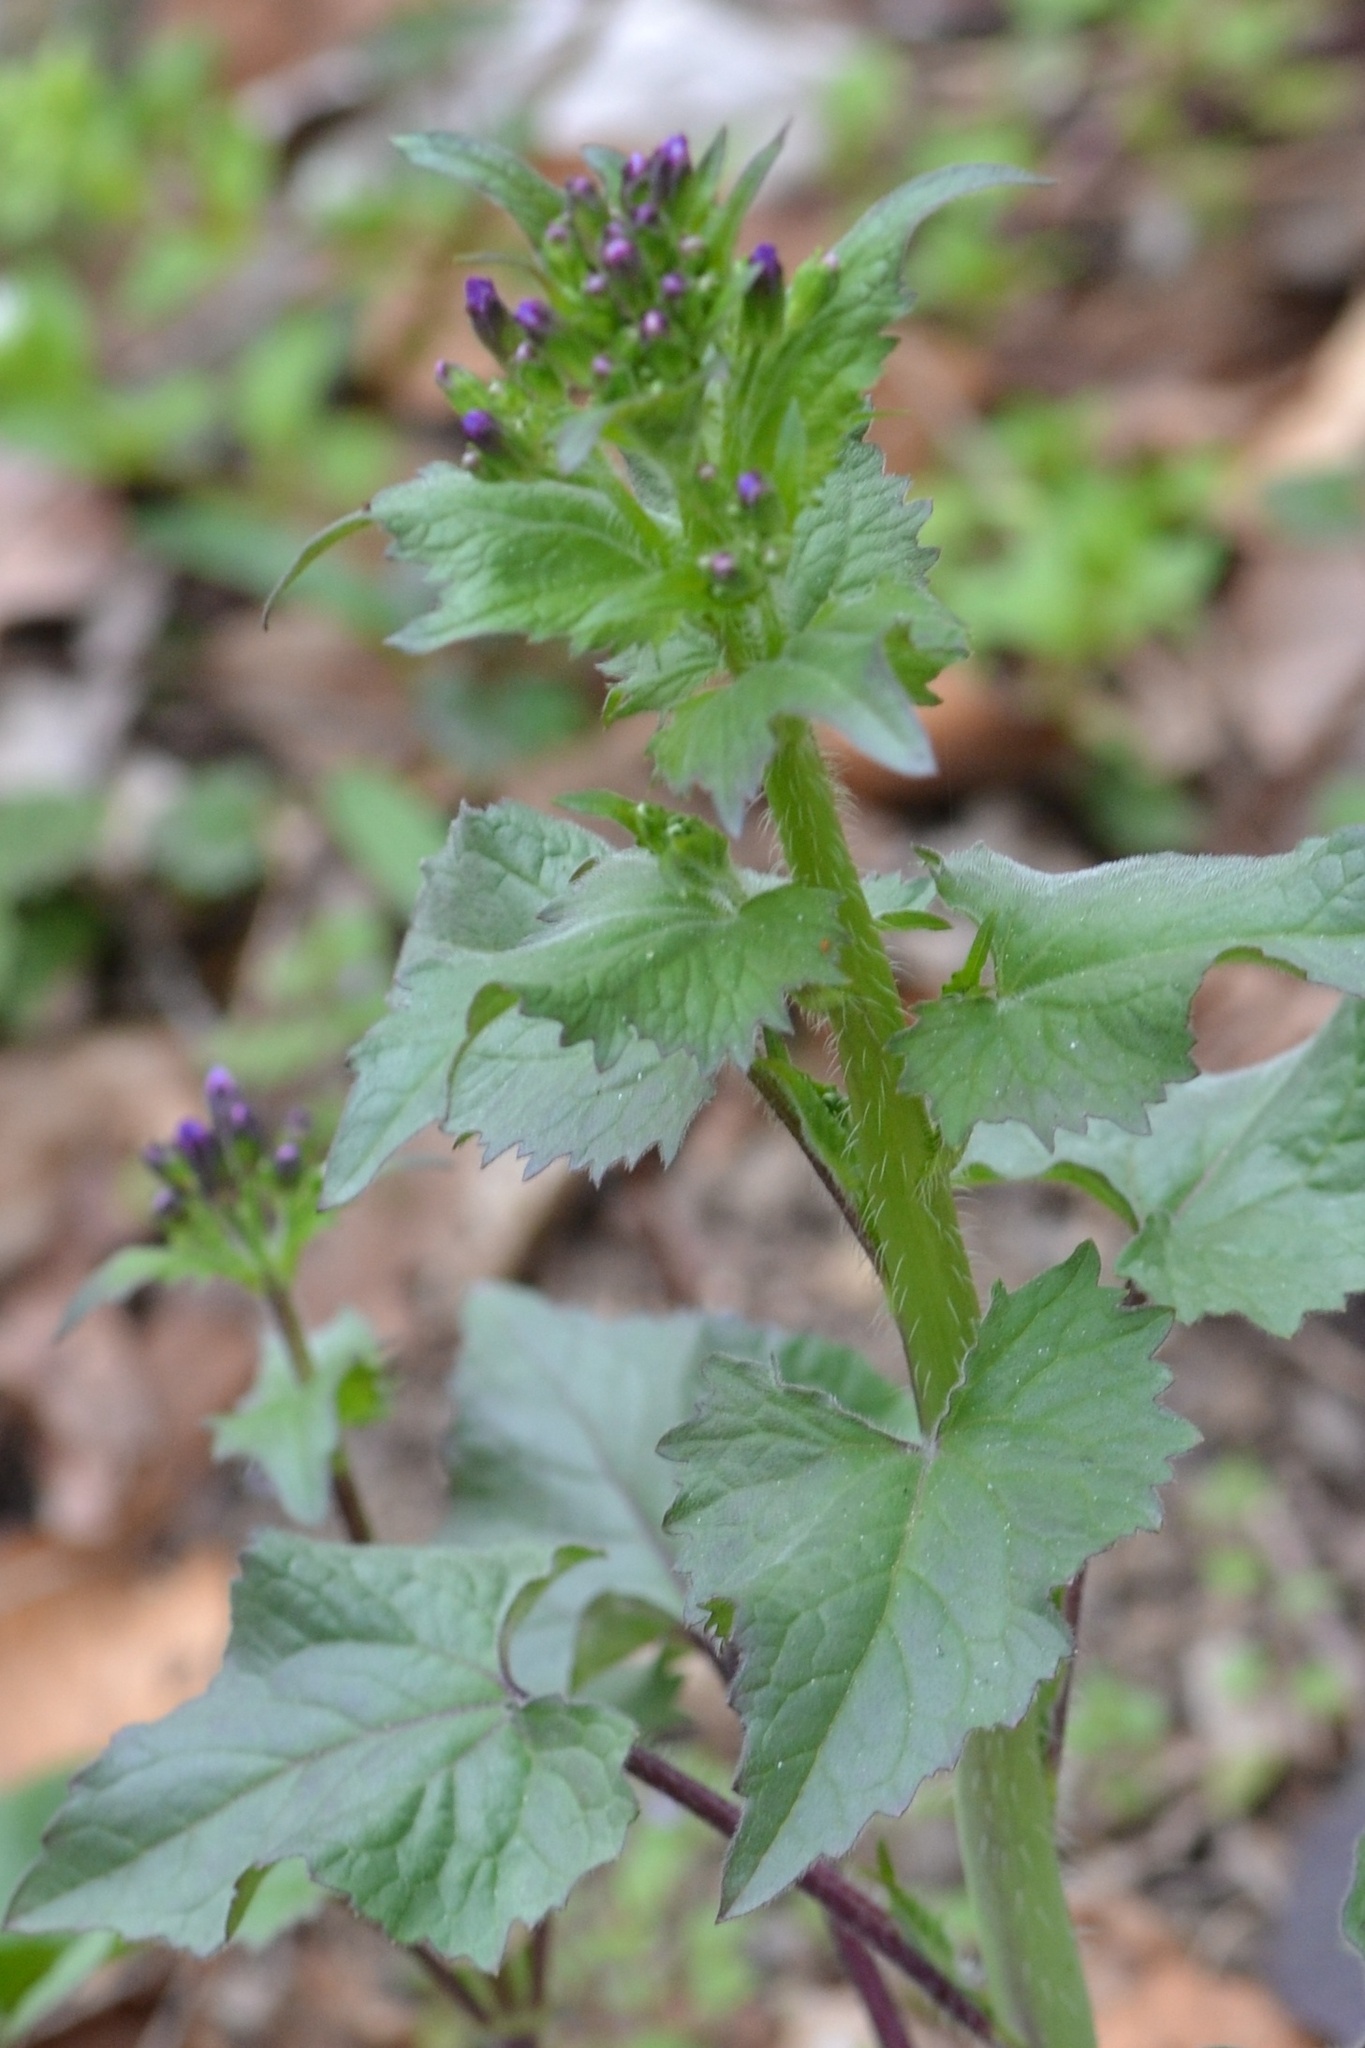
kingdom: Plantae
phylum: Tracheophyta
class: Magnoliopsida
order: Brassicales
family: Brassicaceae
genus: Lunaria
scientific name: Lunaria annua
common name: Honesty
